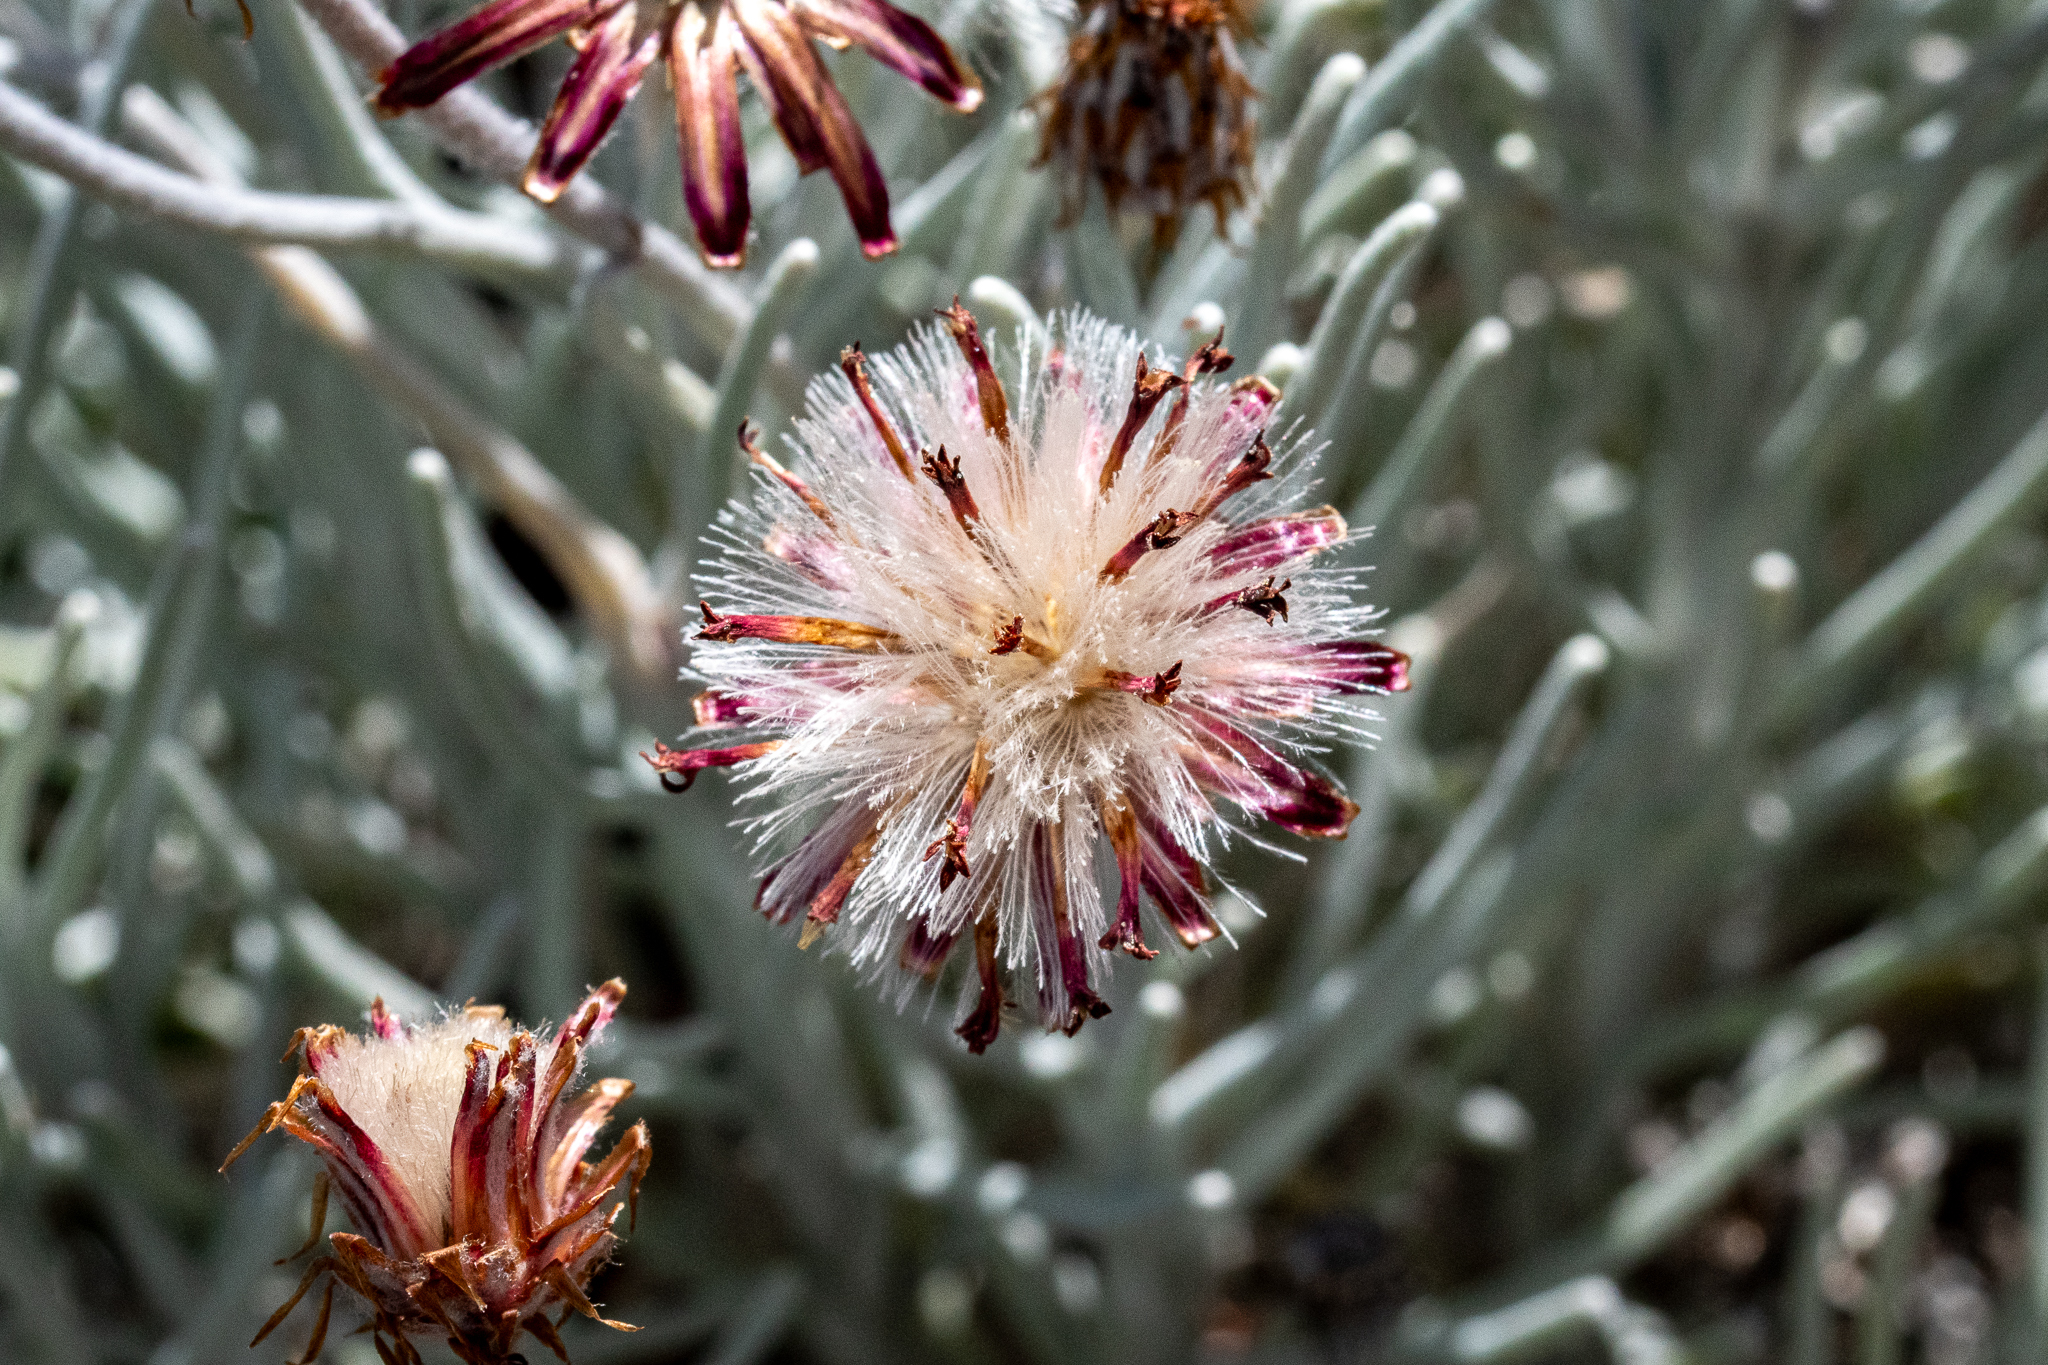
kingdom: Plantae
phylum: Tracheophyta
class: Magnoliopsida
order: Asterales
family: Asteraceae
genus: Syncarpha
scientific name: Syncarpha gnaphaloides
